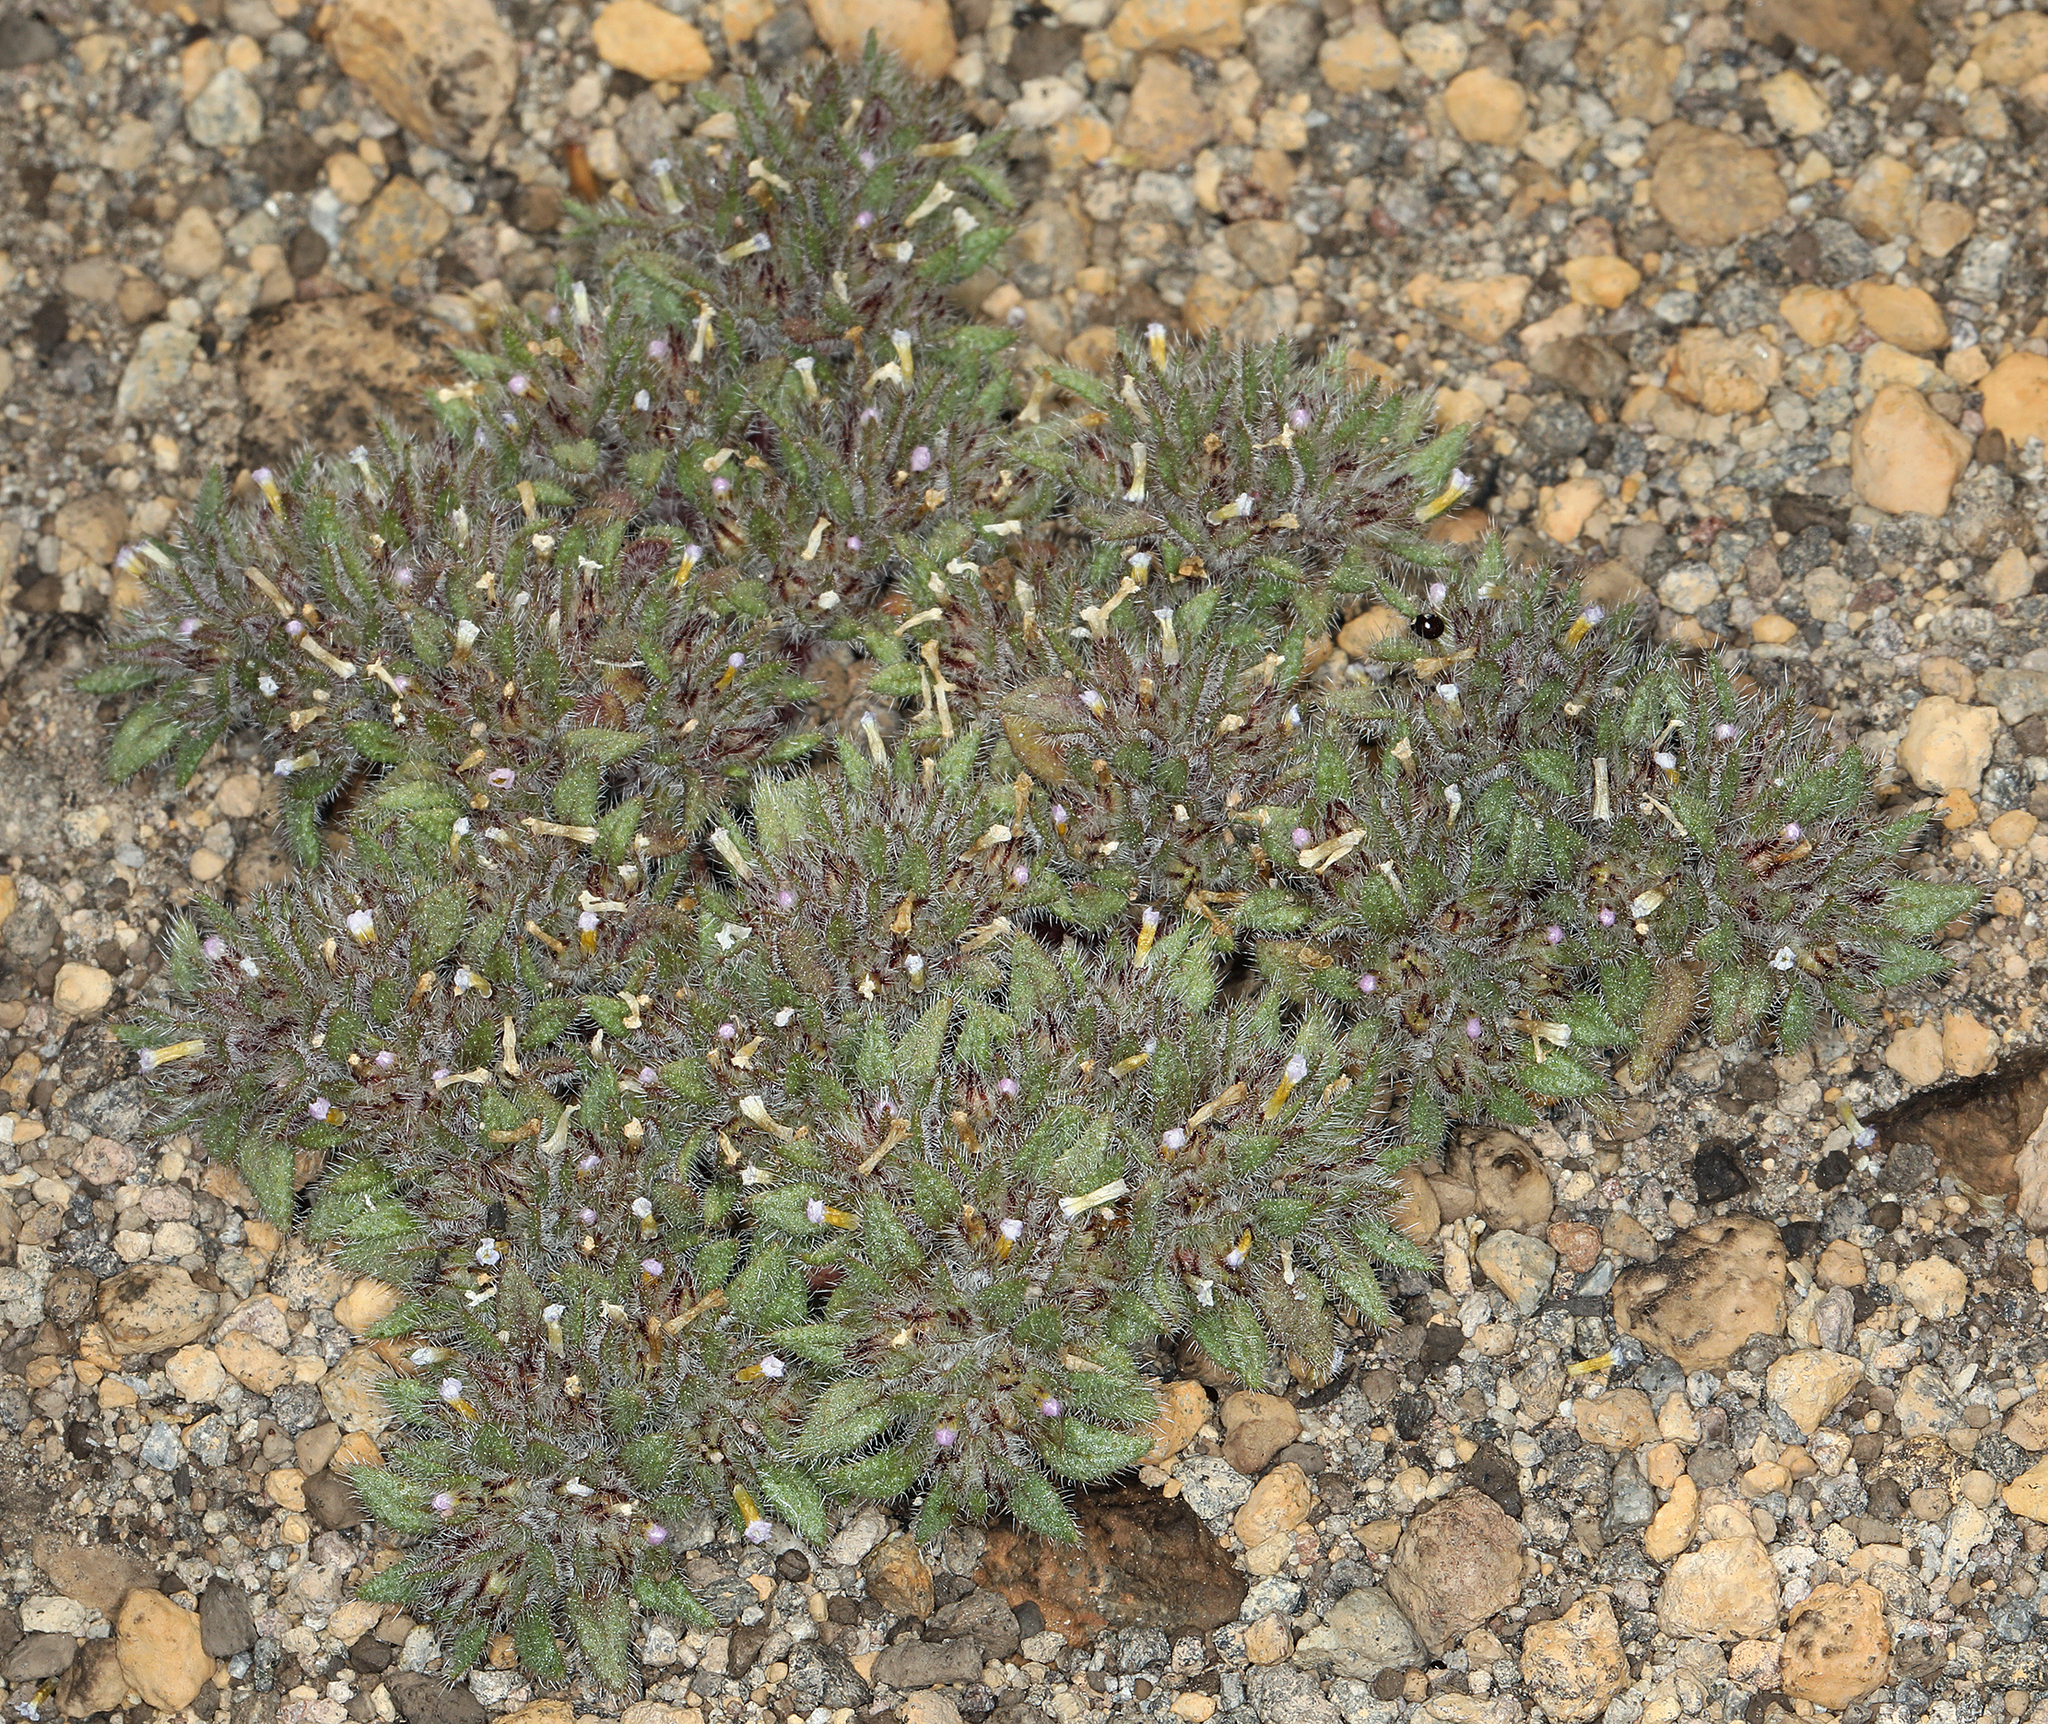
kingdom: Plantae
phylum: Tracheophyta
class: Magnoliopsida
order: Boraginales
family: Namaceae
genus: Nama
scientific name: Nama densa
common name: Leafy nama
